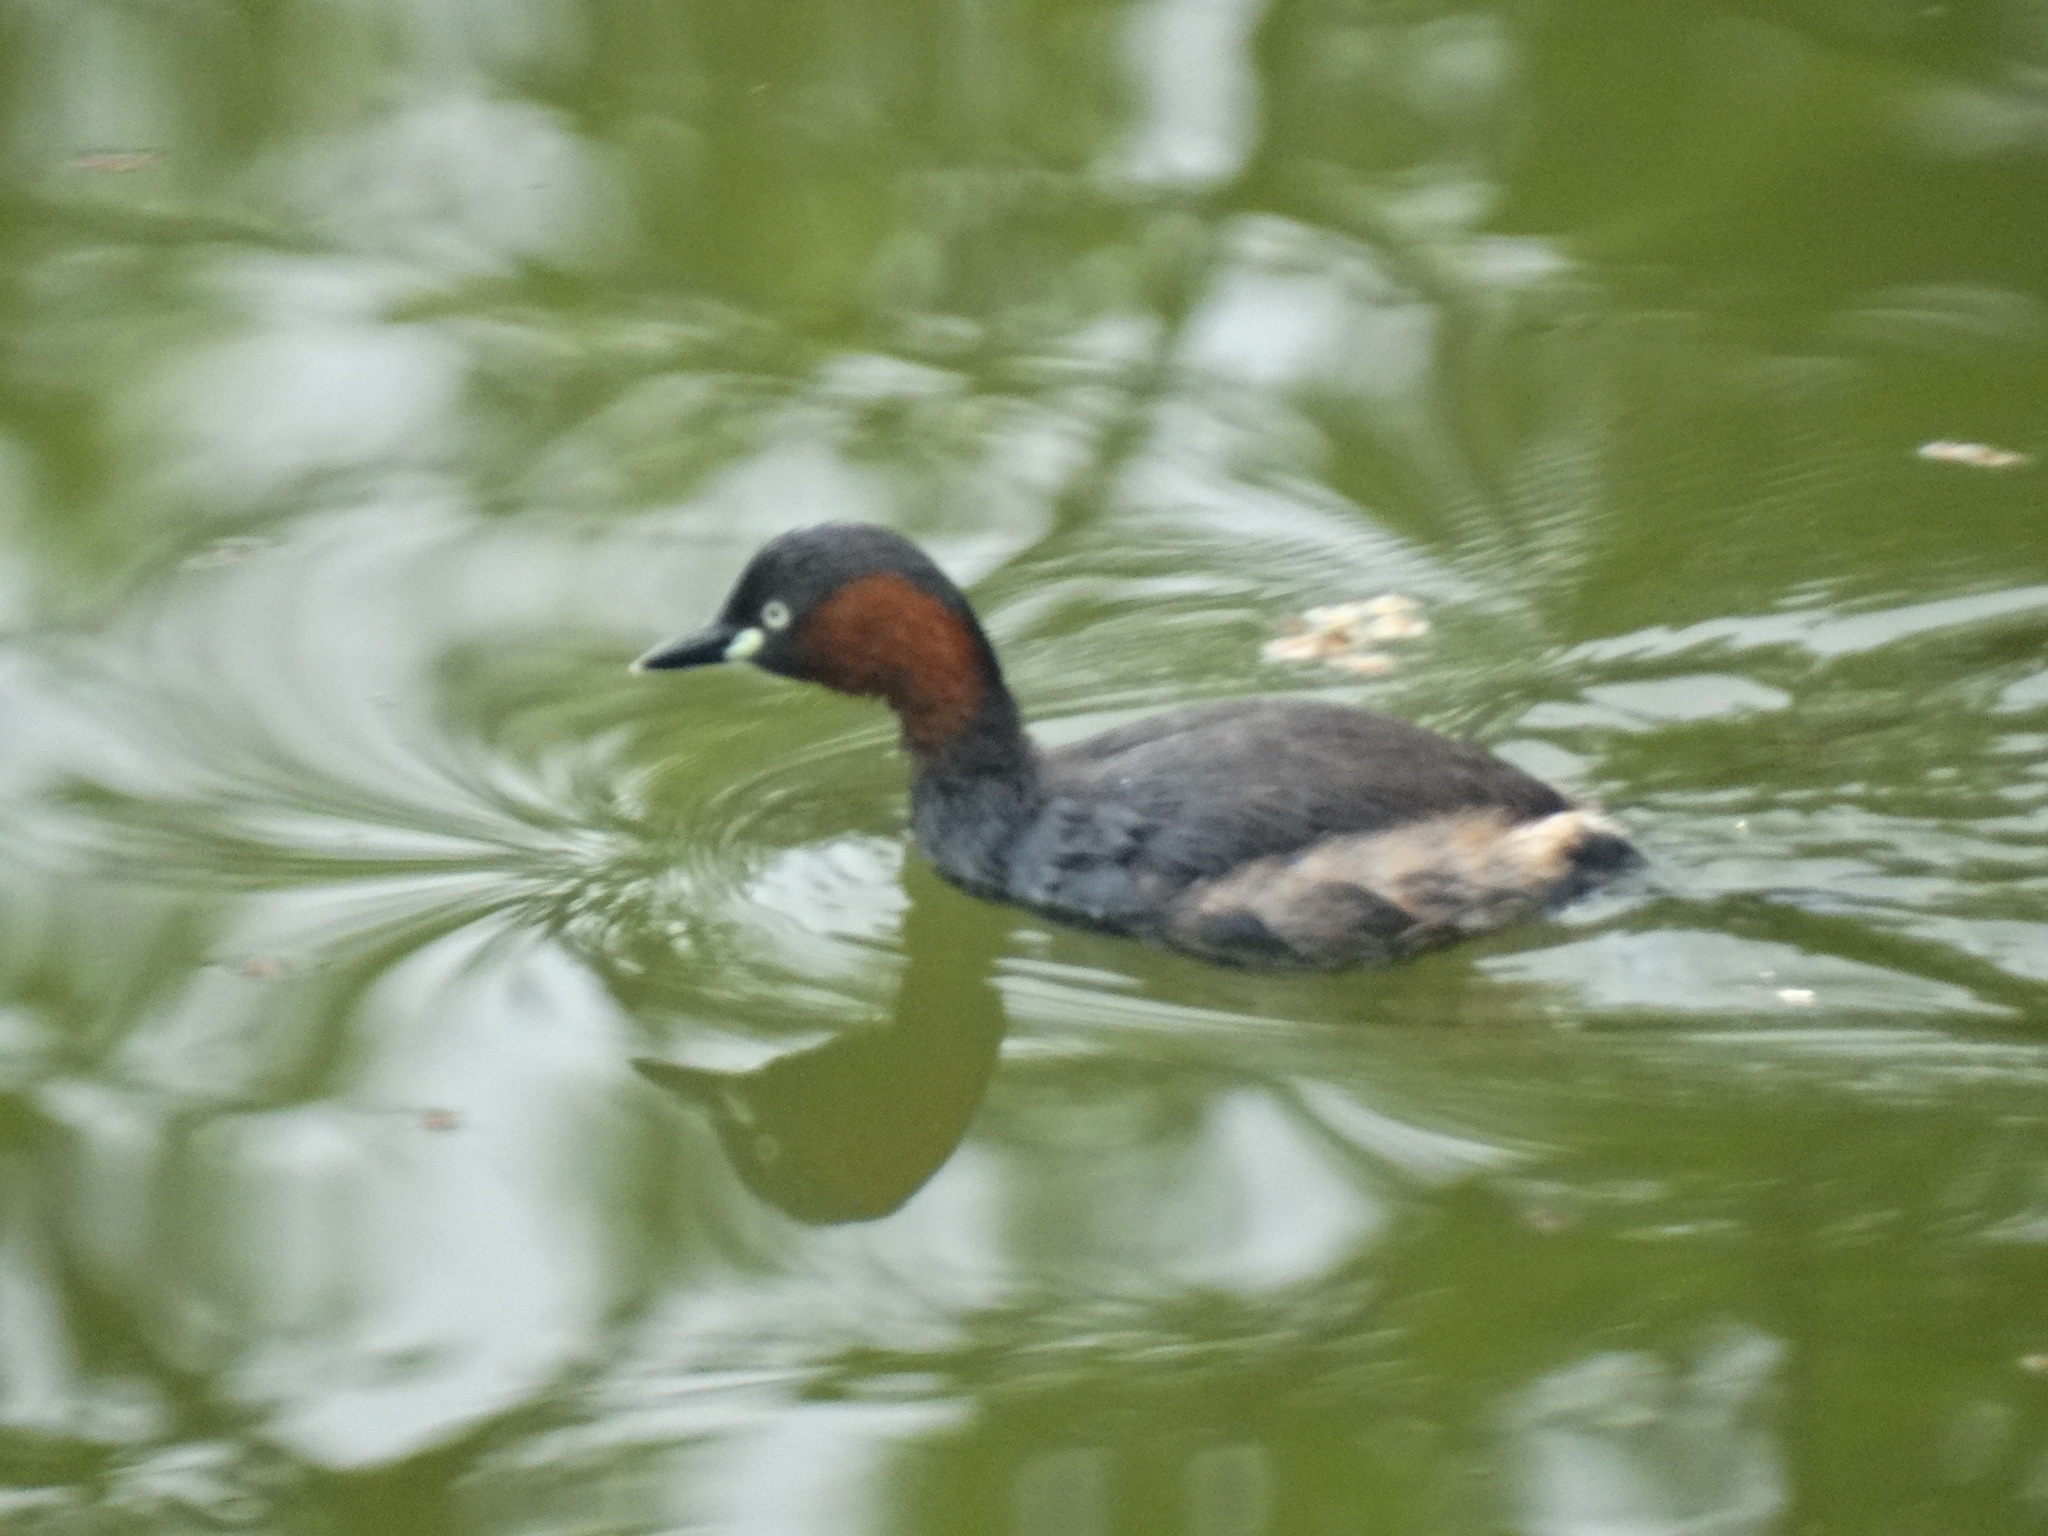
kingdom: Animalia
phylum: Chordata
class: Aves
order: Podicipediformes
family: Podicipedidae
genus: Tachybaptus
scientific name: Tachybaptus ruficollis
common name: Little grebe
